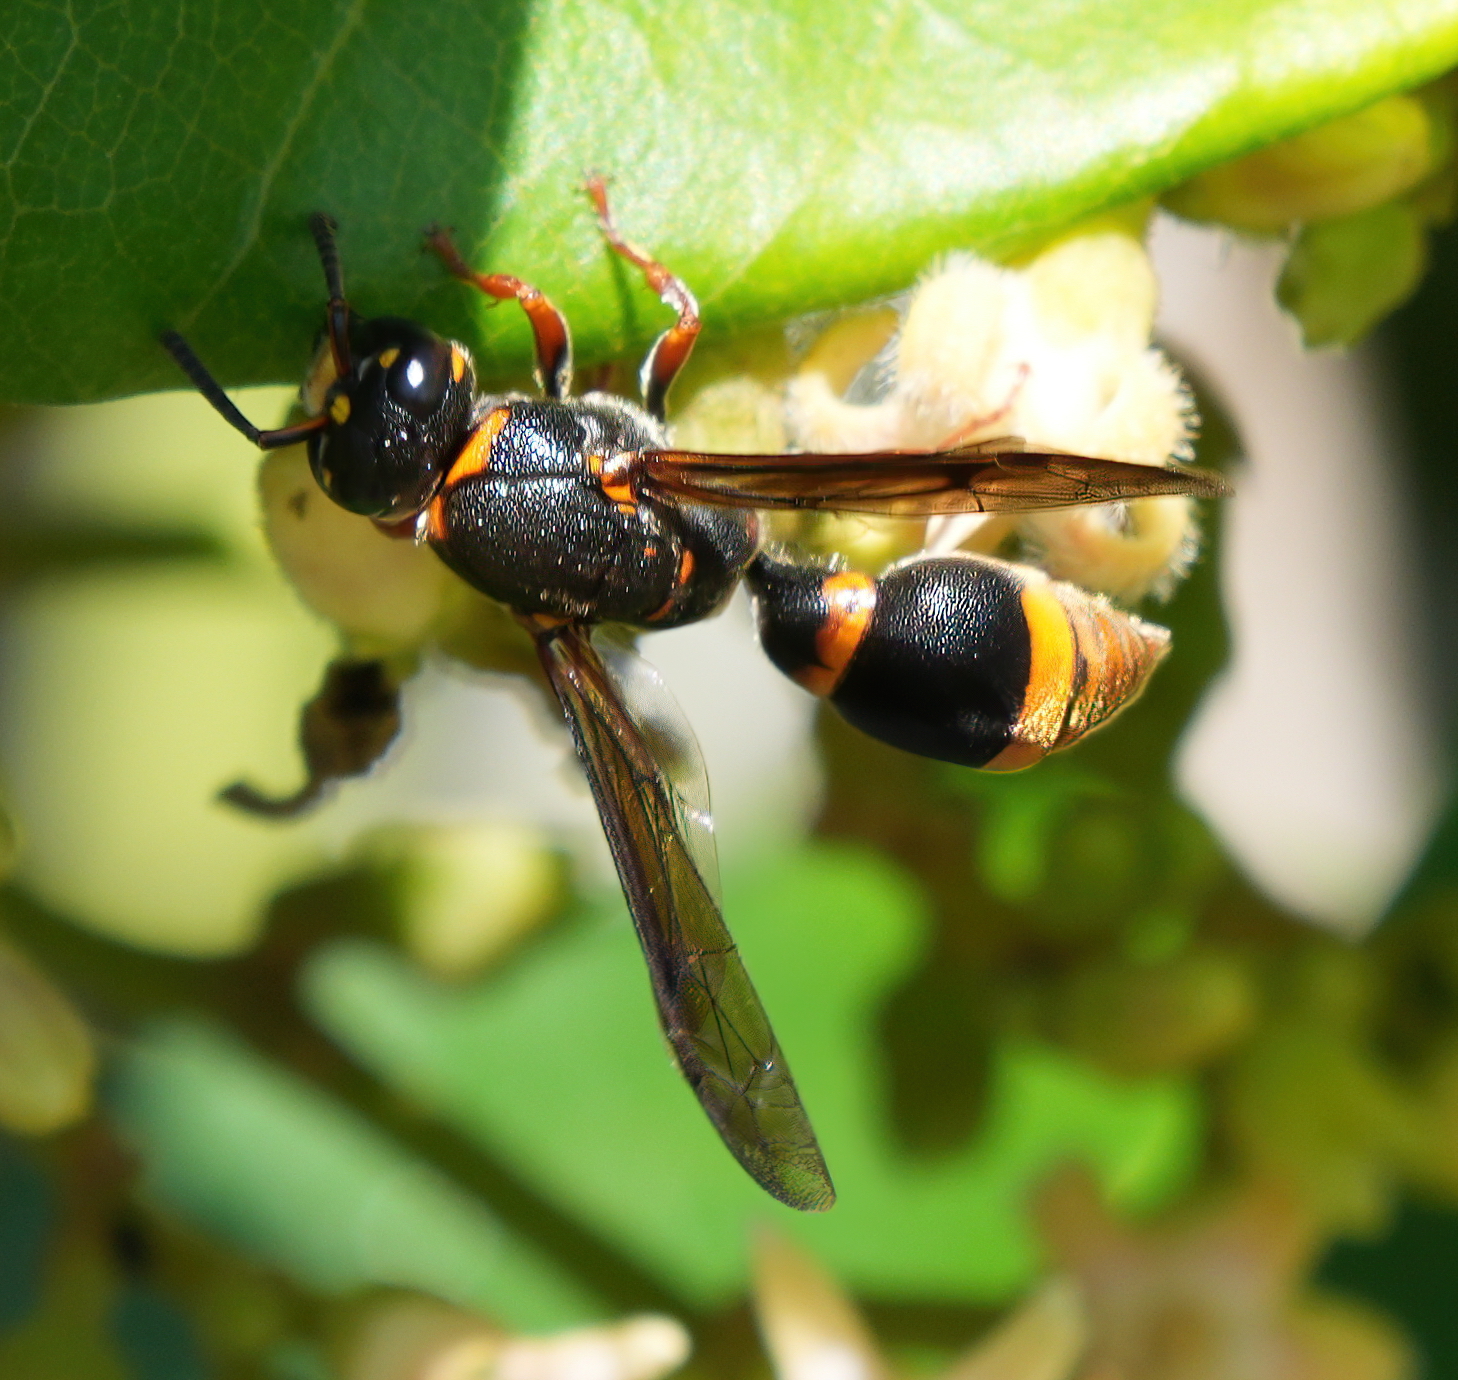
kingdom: Animalia
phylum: Arthropoda
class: Insecta
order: Hymenoptera
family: Eumenidae
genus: Acarozumia
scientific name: Acarozumia amaliae
